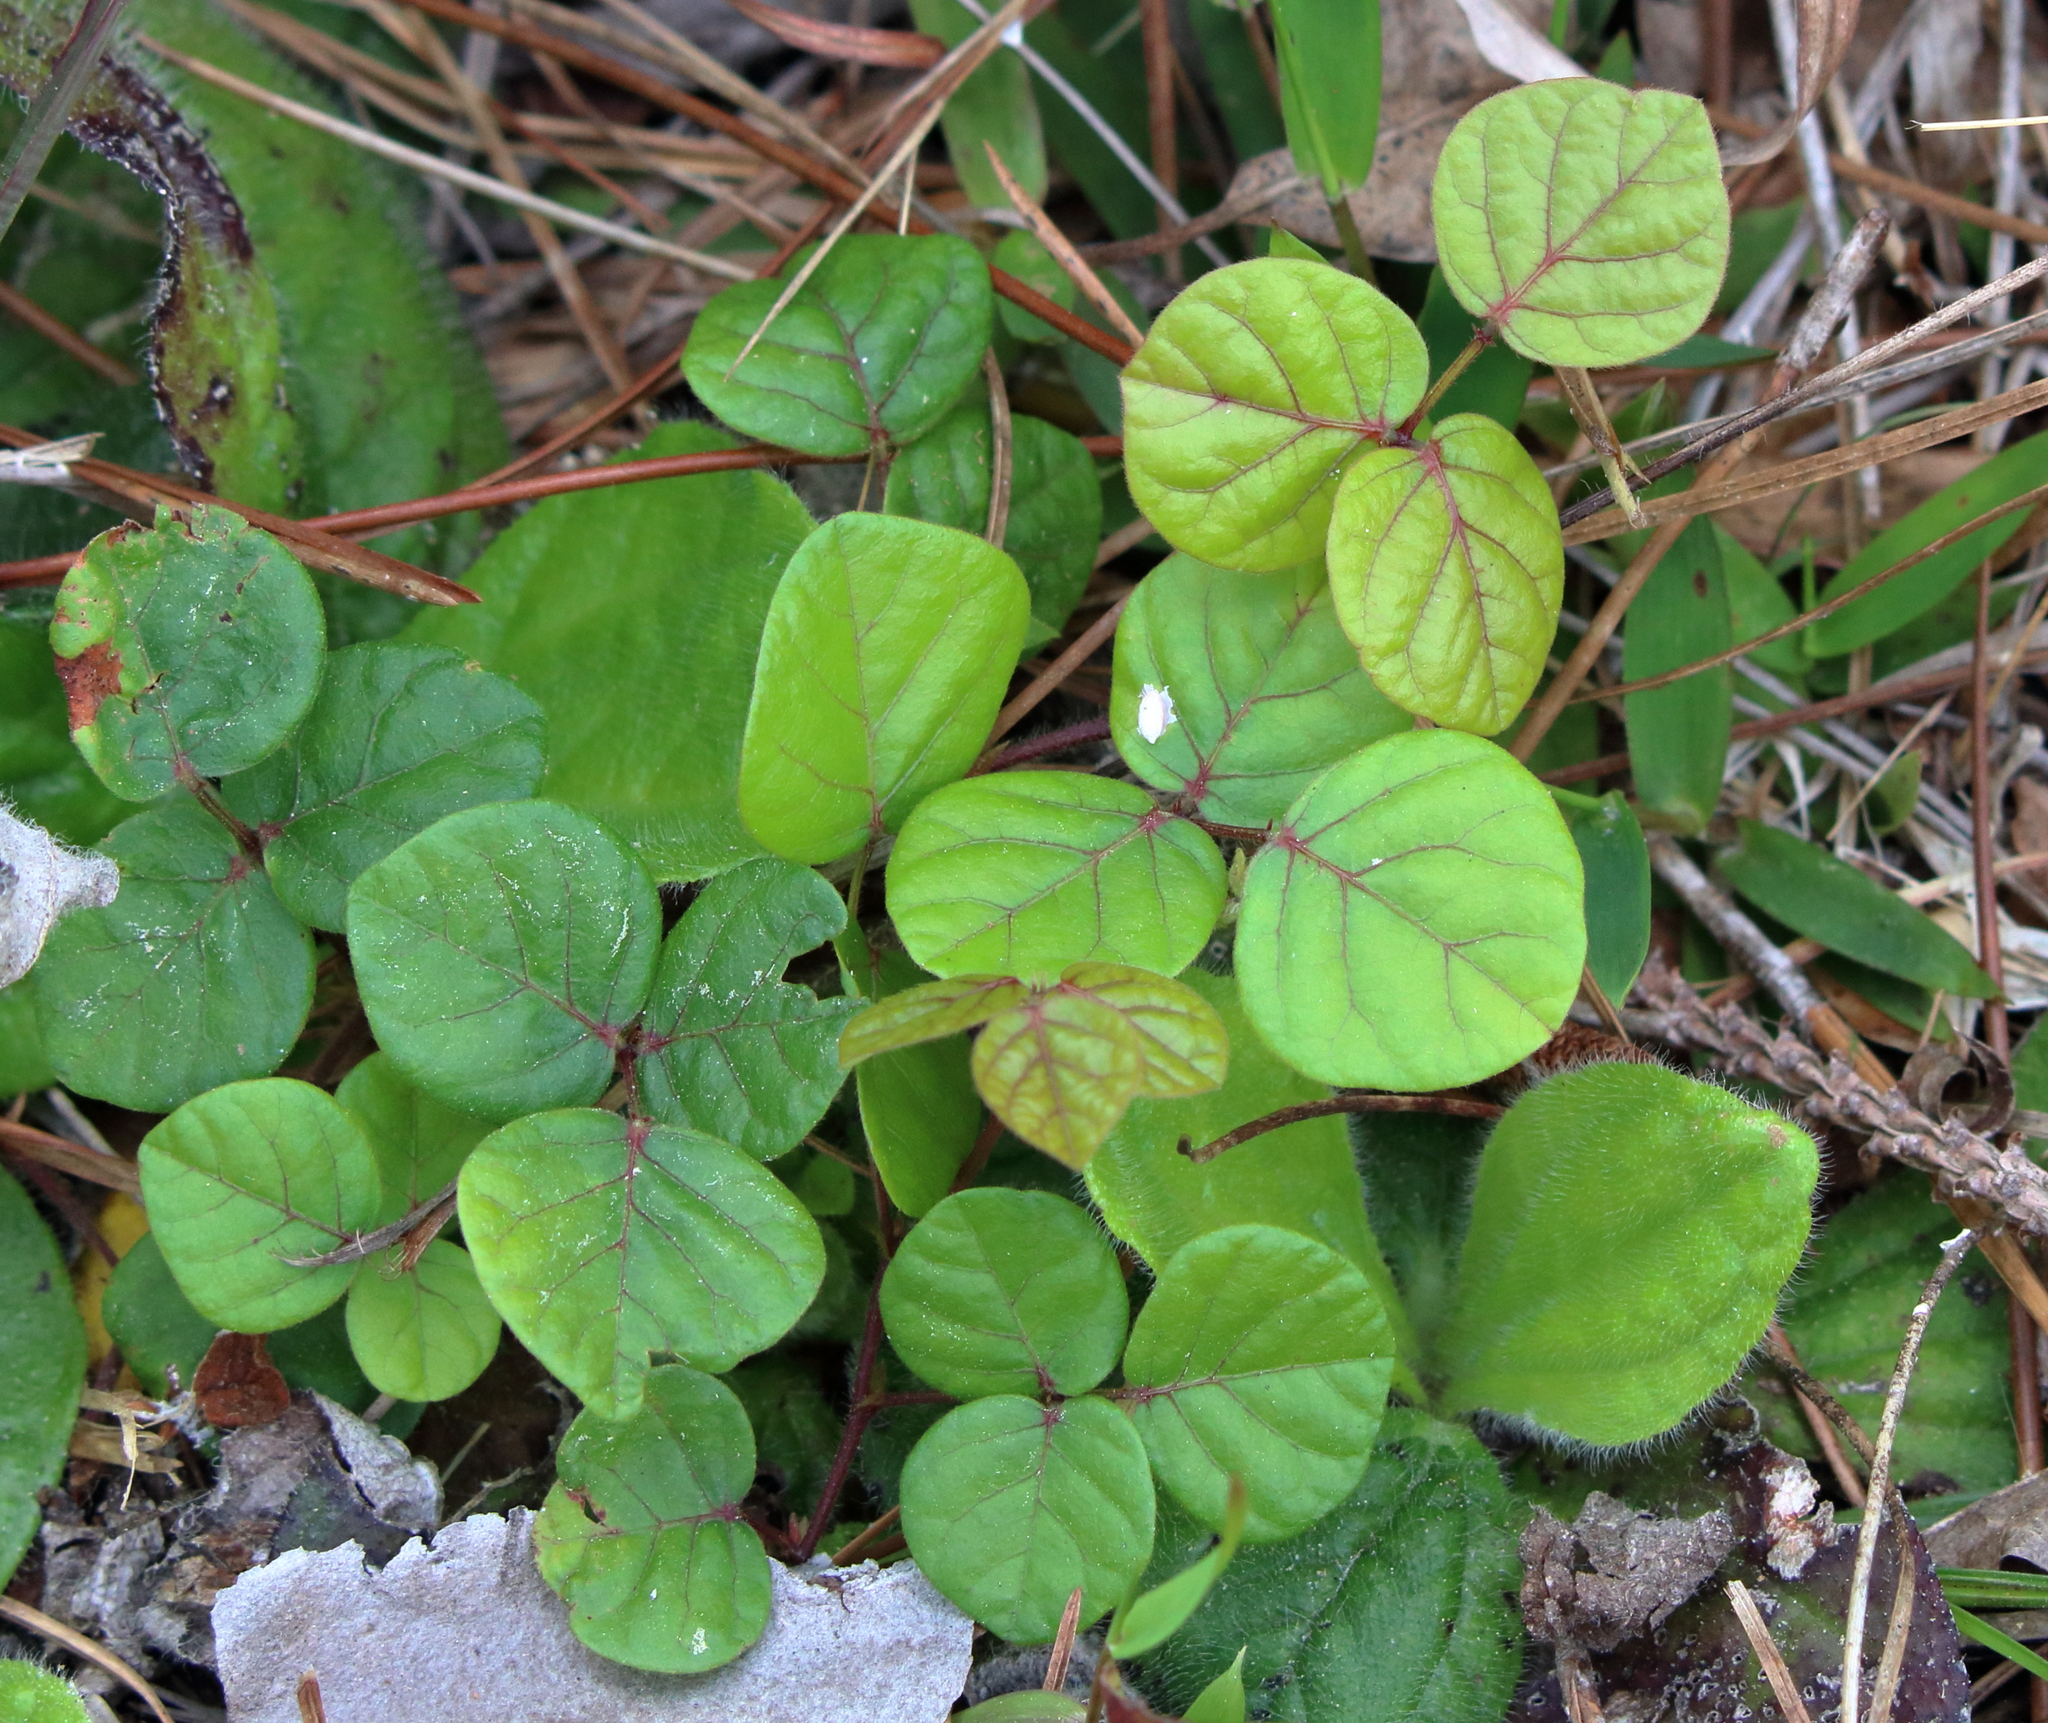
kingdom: Plantae
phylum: Tracheophyta
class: Magnoliopsida
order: Fabales
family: Fabaceae
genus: Desmodium
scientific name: Desmodium lineatum
